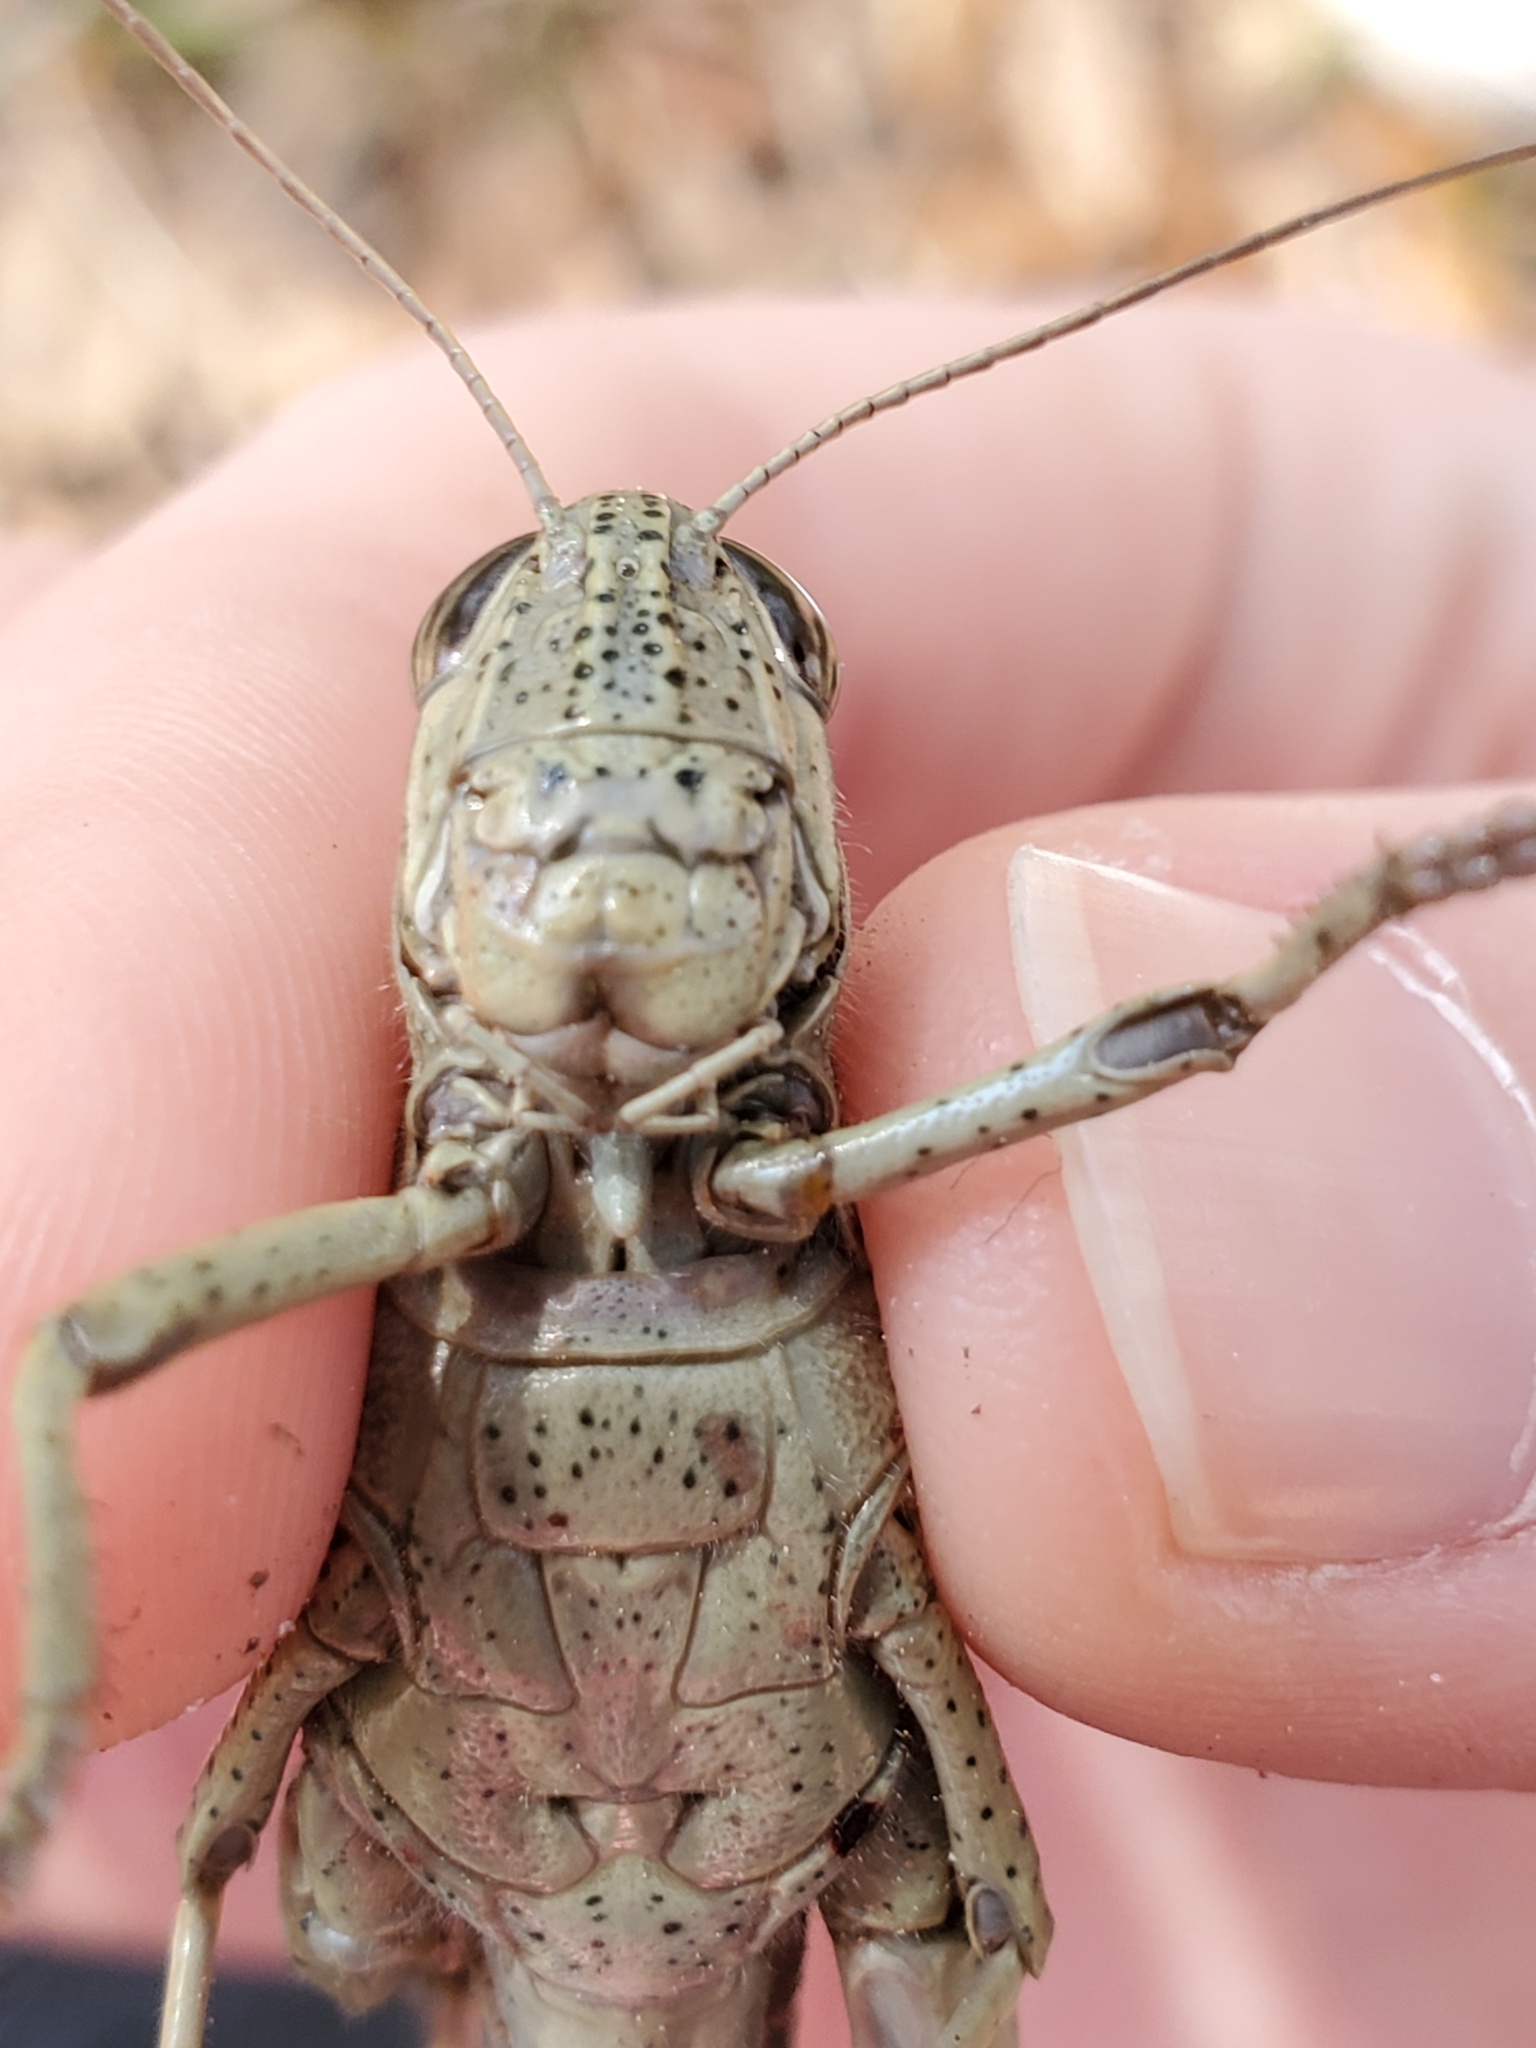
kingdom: Animalia
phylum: Arthropoda
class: Insecta
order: Orthoptera
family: Acrididae
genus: Schistocerca
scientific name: Schistocerca rubiginosa
